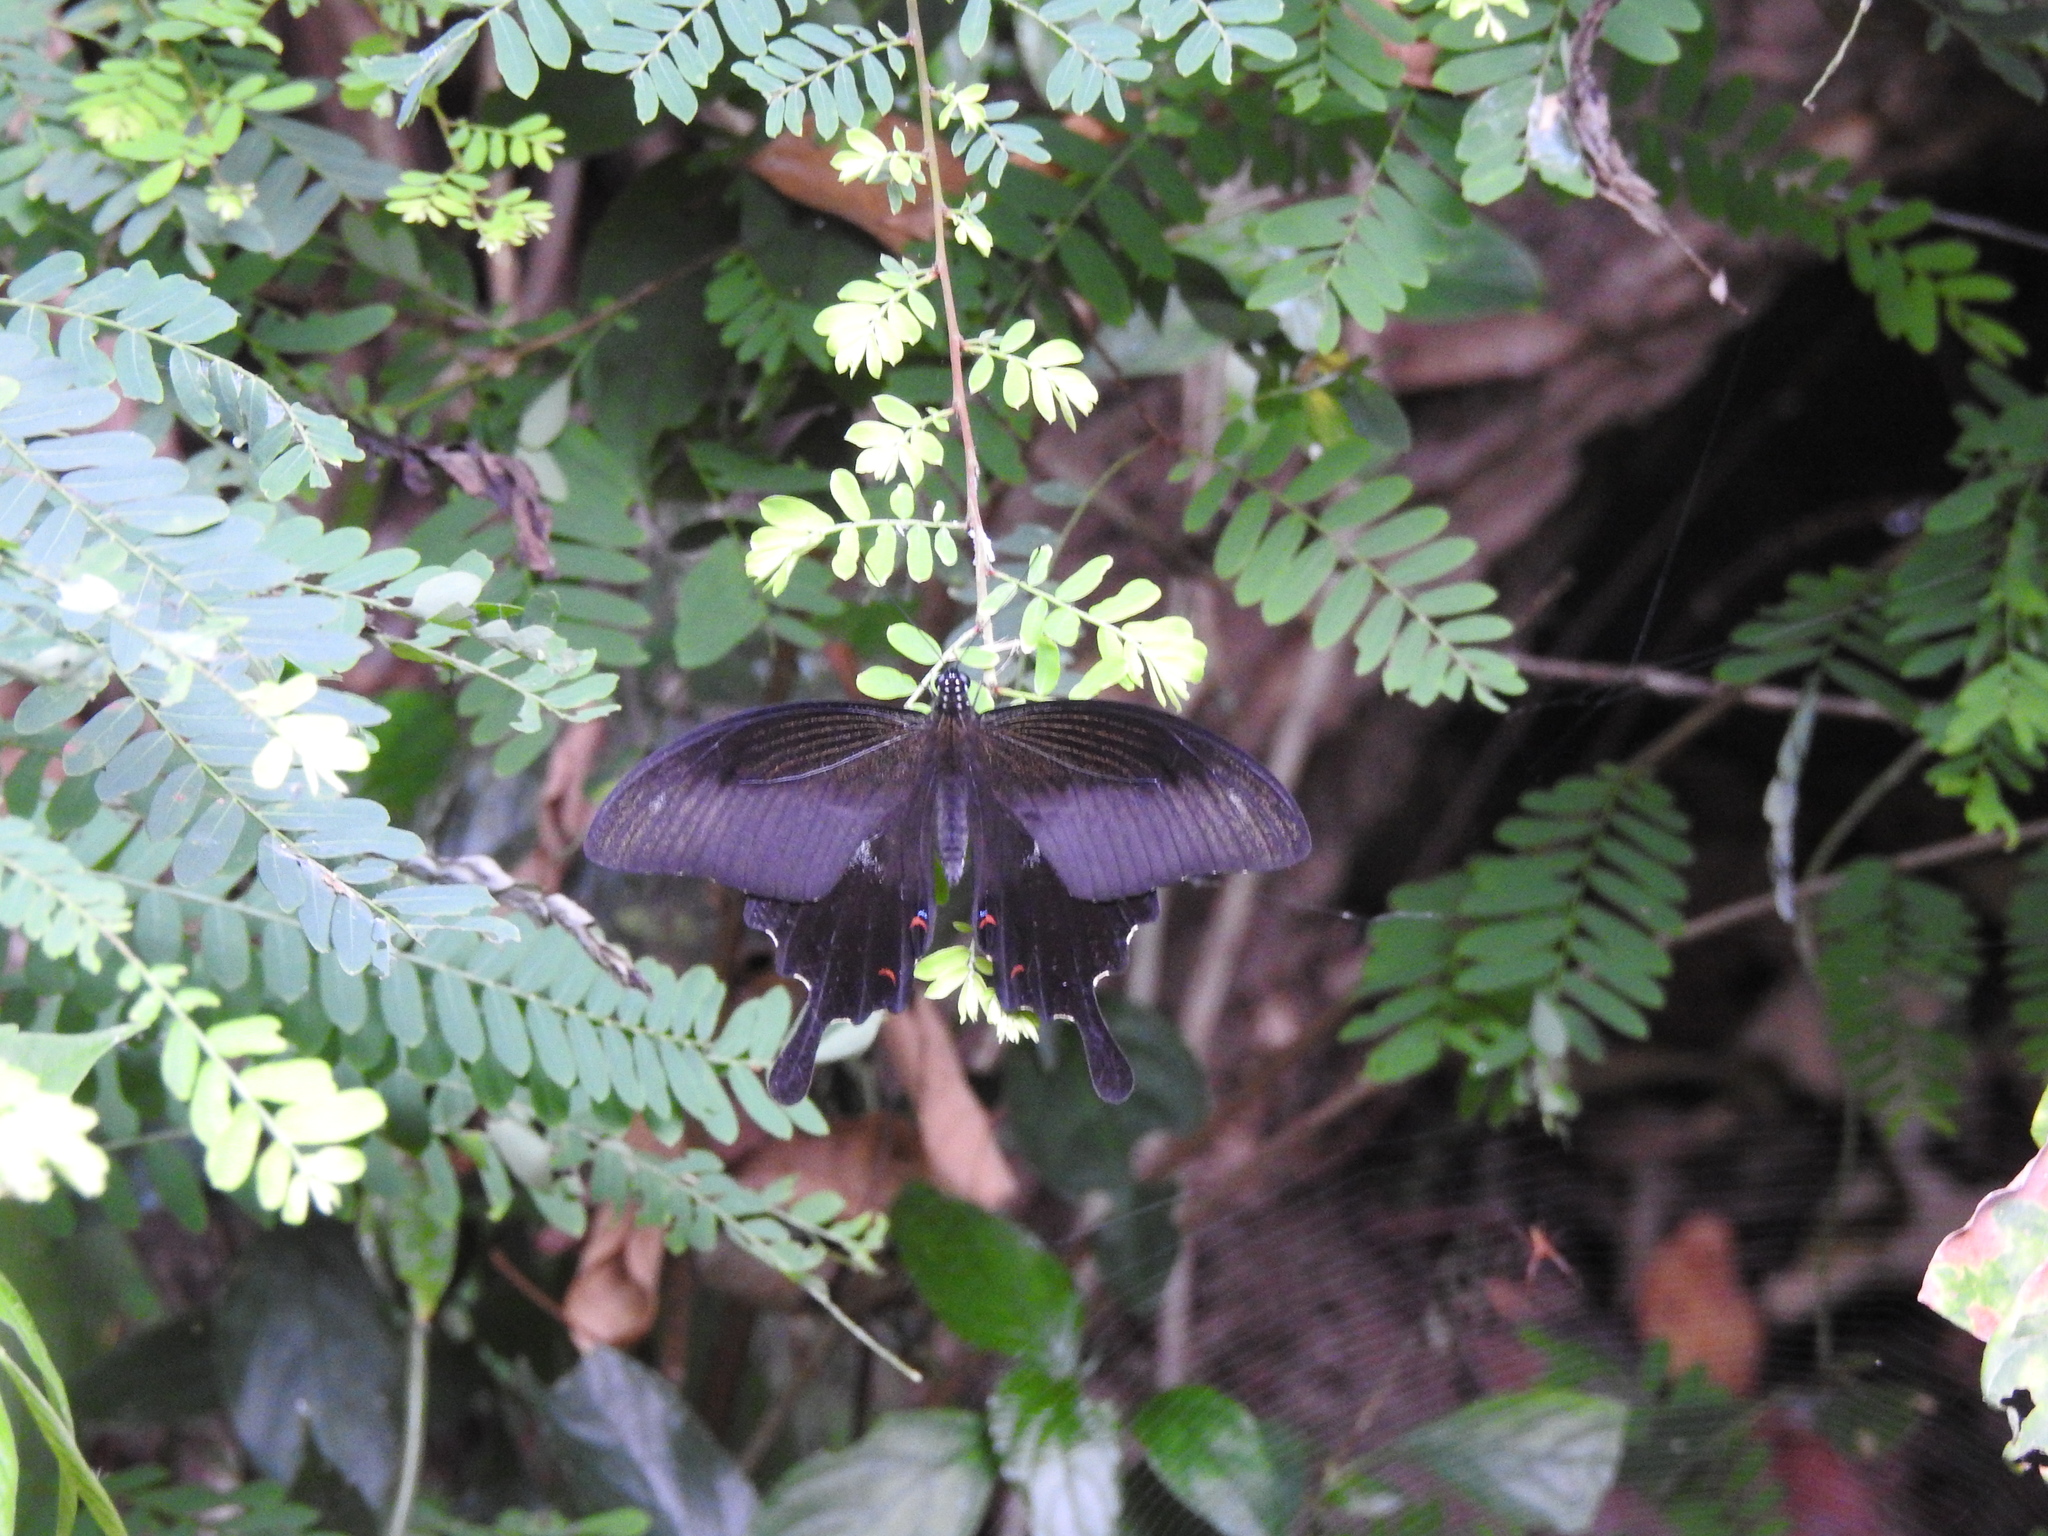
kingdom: Animalia
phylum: Arthropoda
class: Insecta
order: Lepidoptera
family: Papilionidae
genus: Papilio
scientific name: Papilio helenus
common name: Red helen
